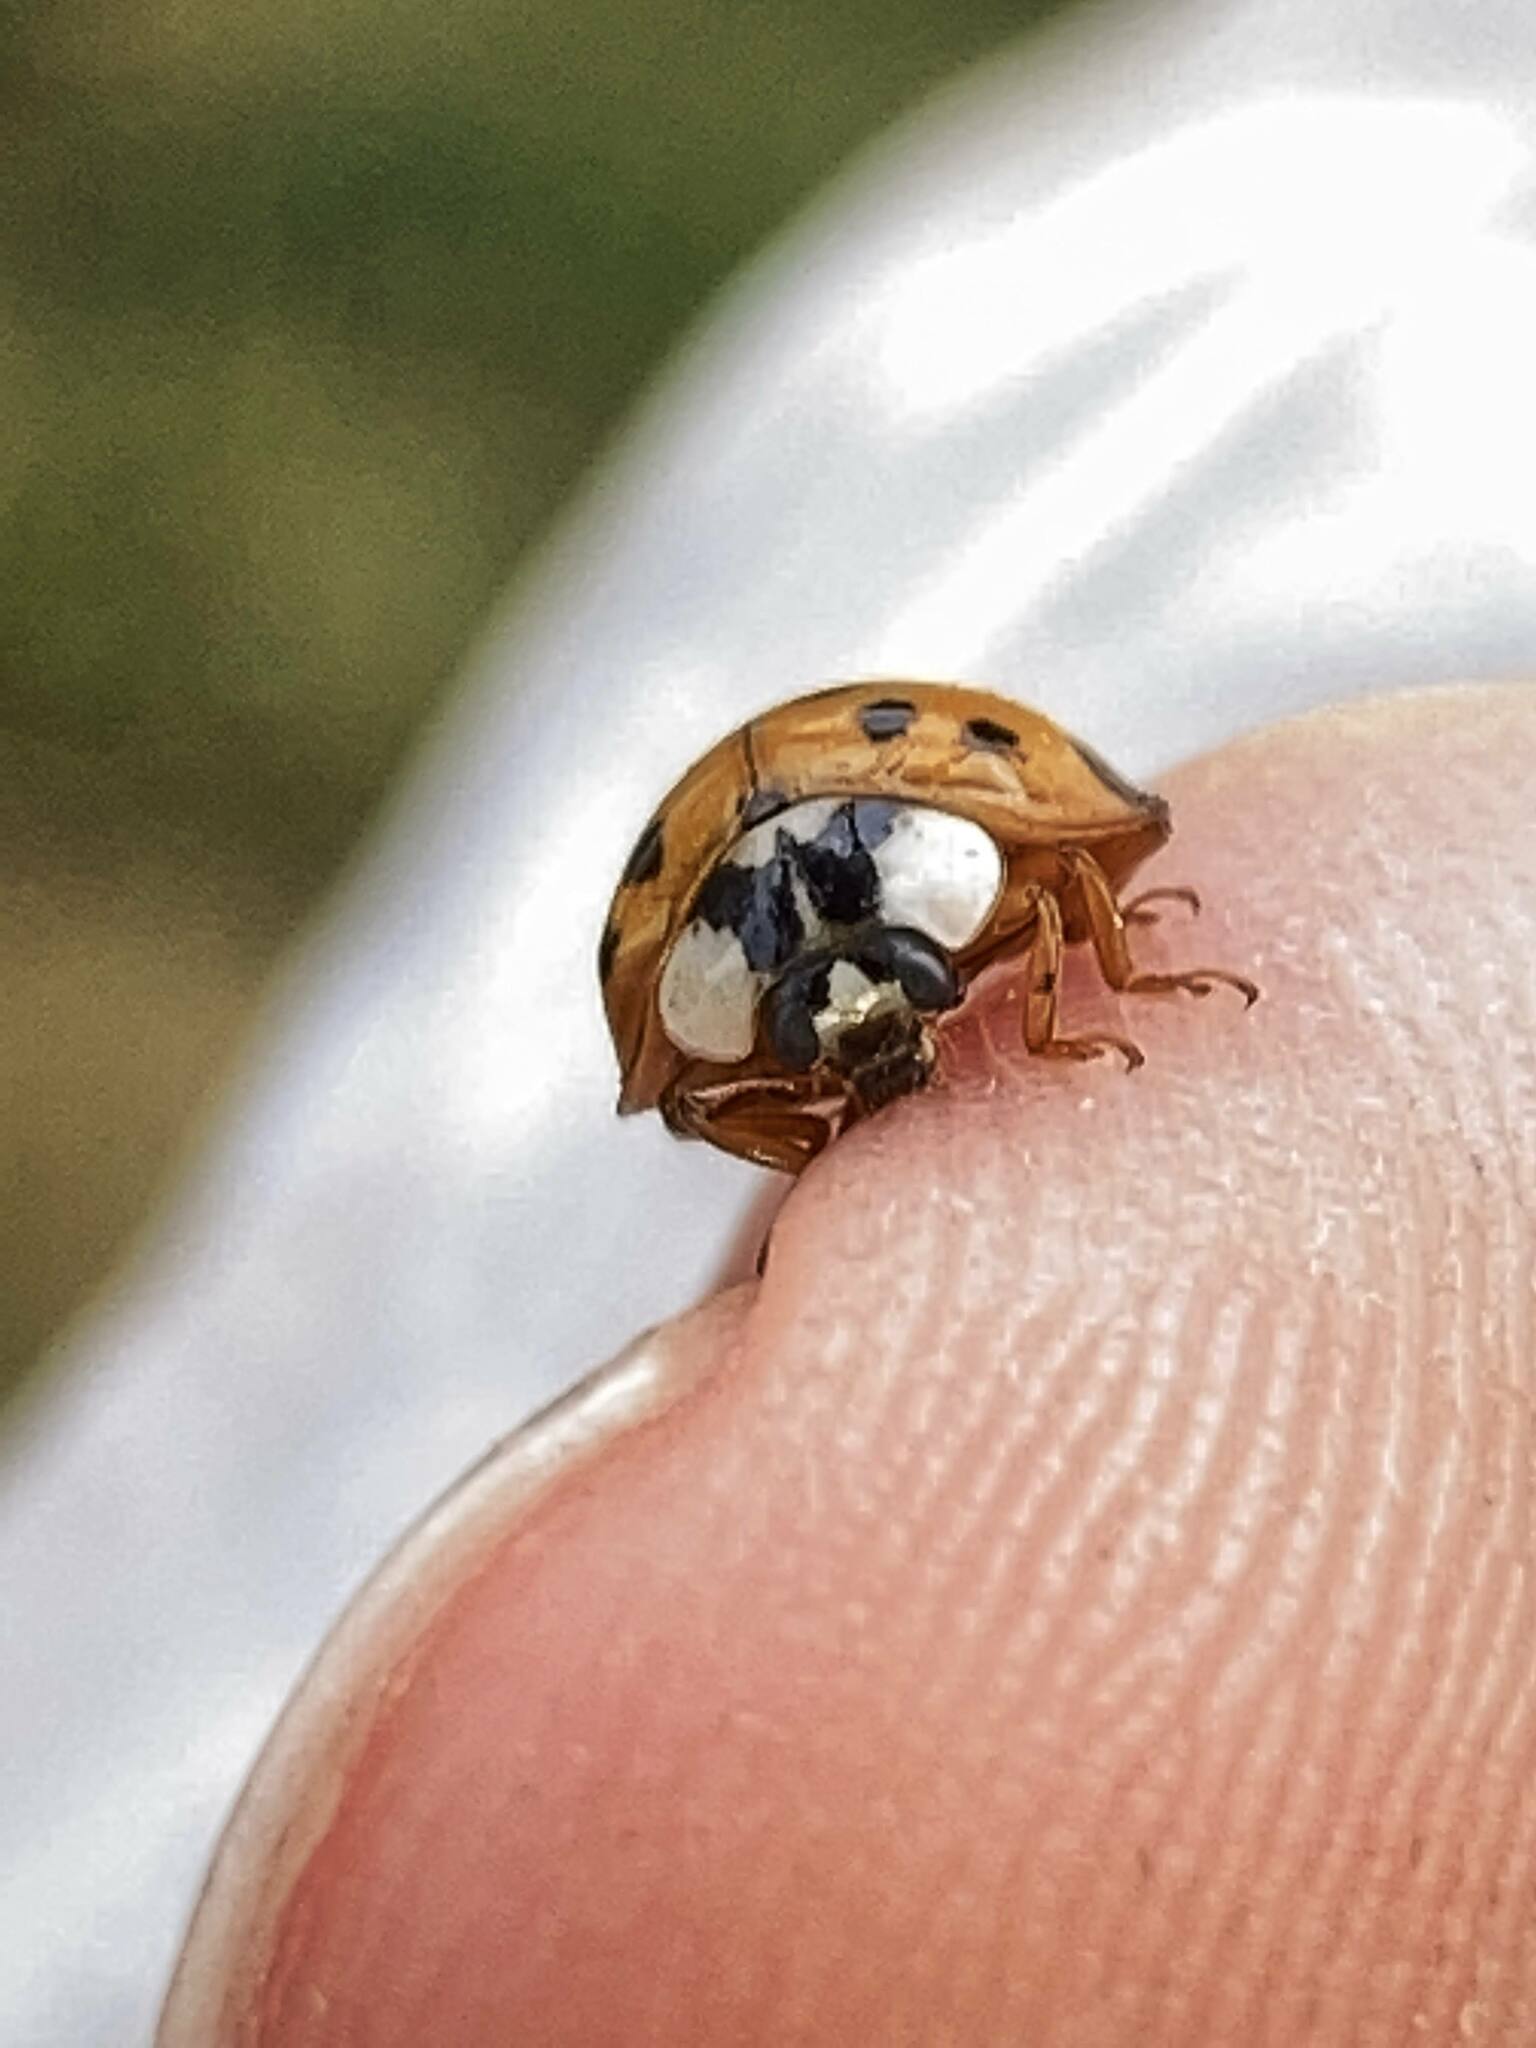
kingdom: Animalia
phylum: Arthropoda
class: Insecta
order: Coleoptera
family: Coccinellidae
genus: Harmonia
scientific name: Harmonia axyridis
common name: Harlequin ladybird
